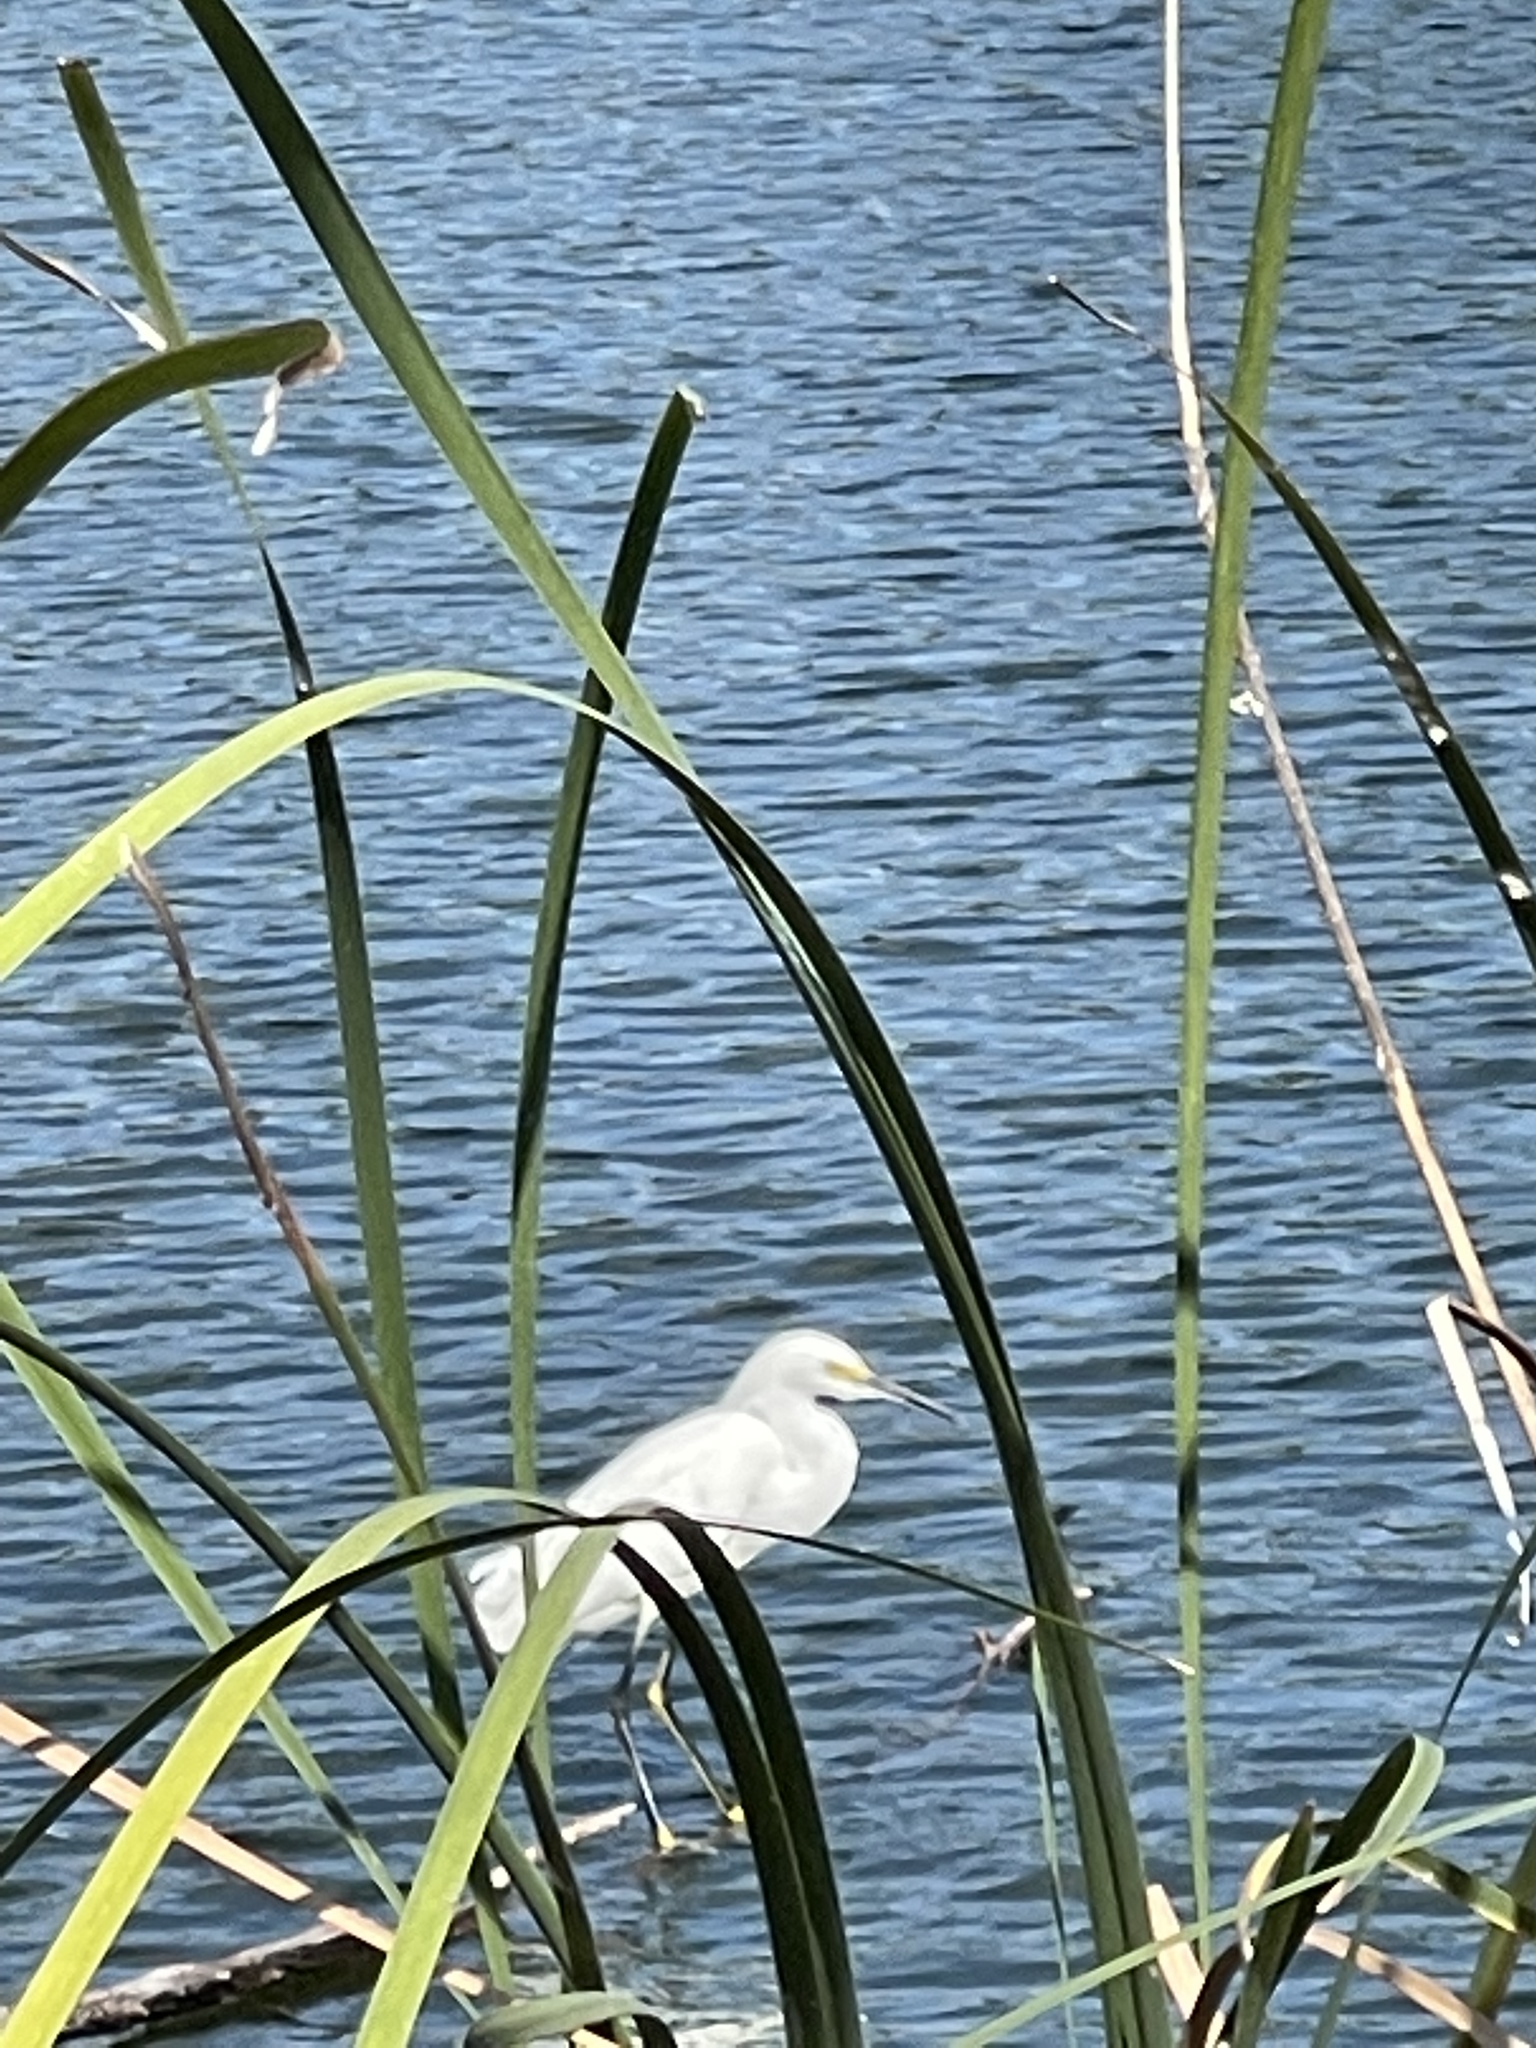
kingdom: Animalia
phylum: Chordata
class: Aves
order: Pelecaniformes
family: Ardeidae
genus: Egretta
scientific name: Egretta thula
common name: Snowy egret
